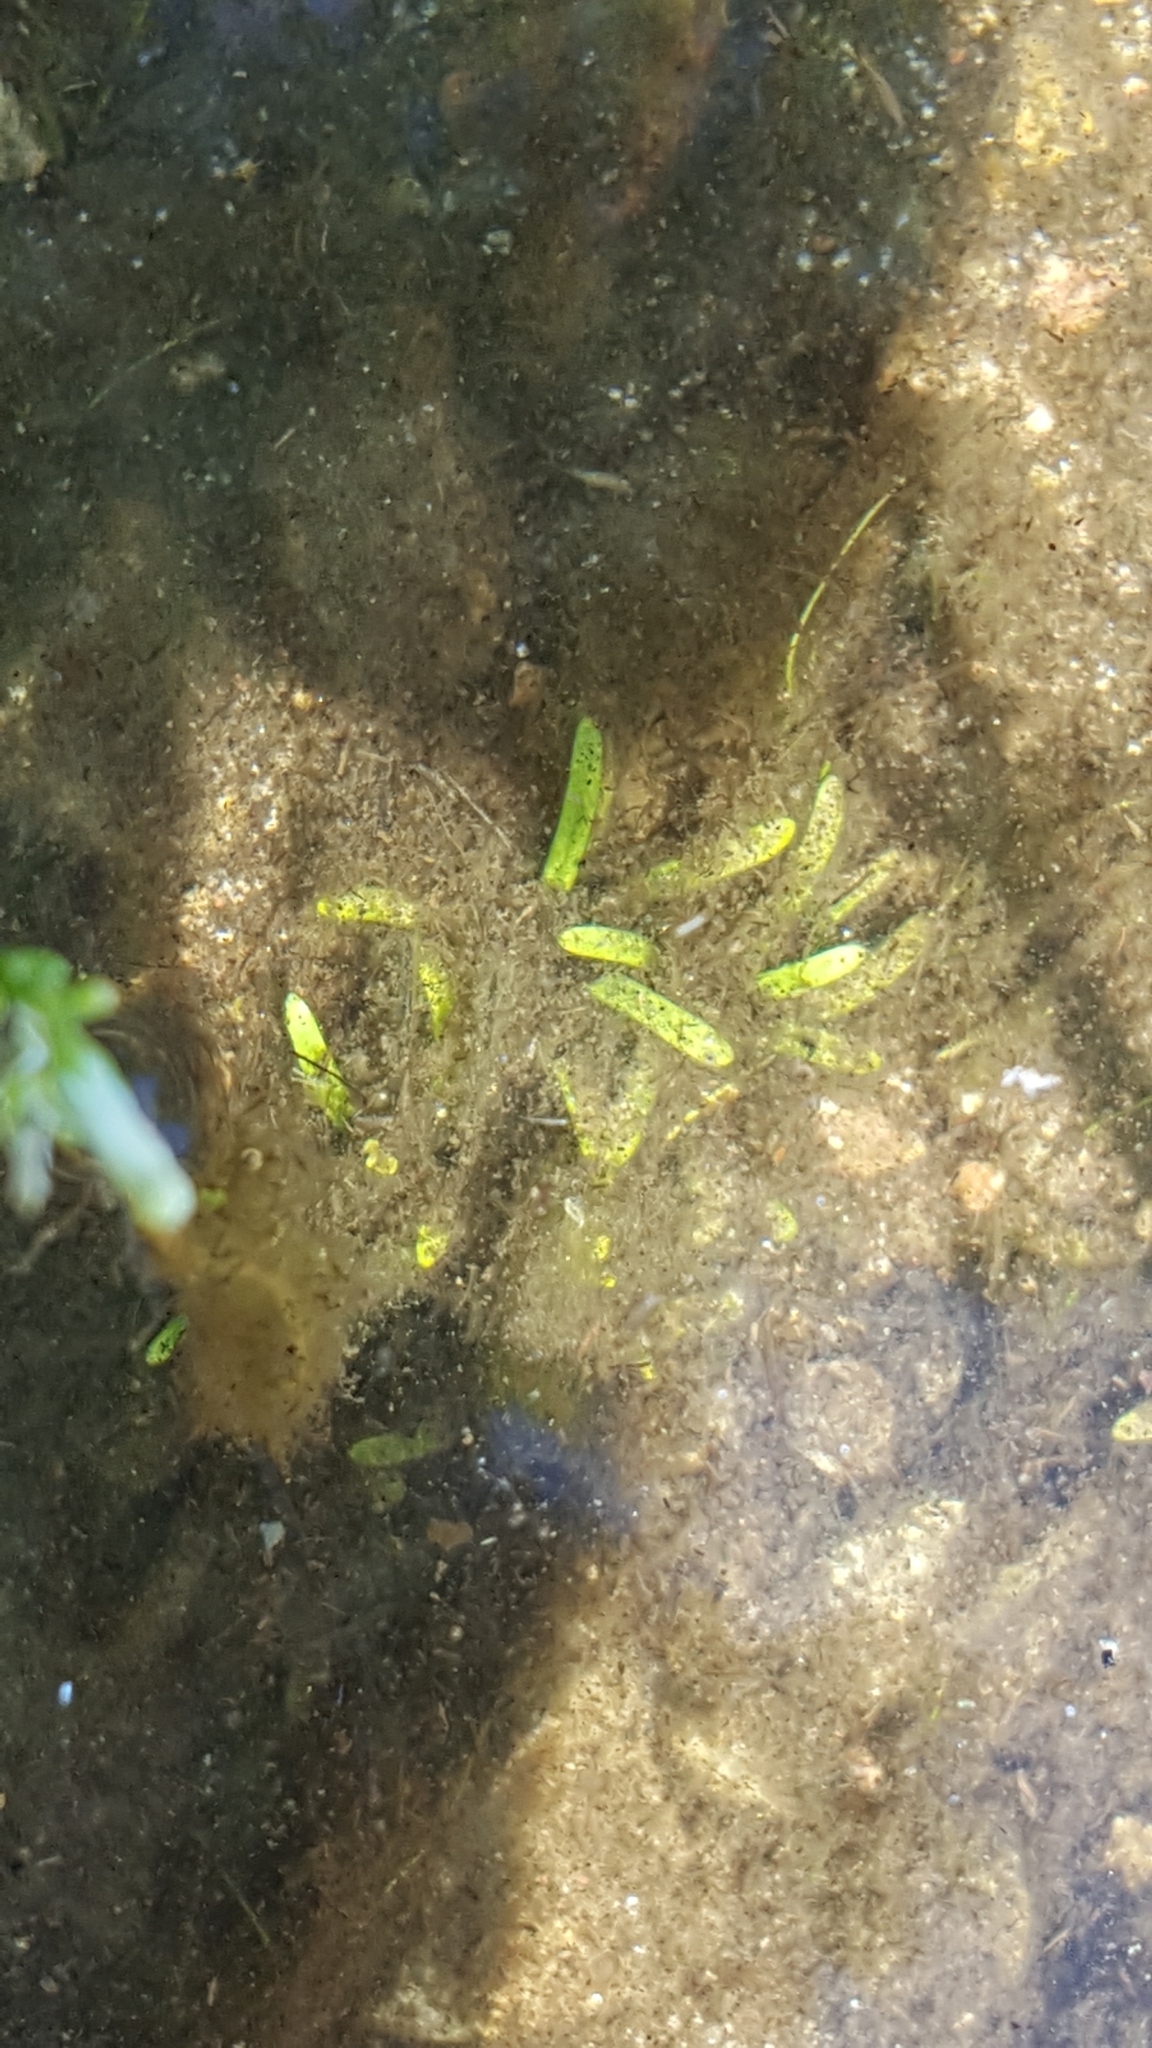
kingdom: Plantae
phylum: Tracheophyta
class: Magnoliopsida
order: Asterales
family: Campanulaceae
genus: Lobelia
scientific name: Lobelia dortmanna
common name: Water lobelia
